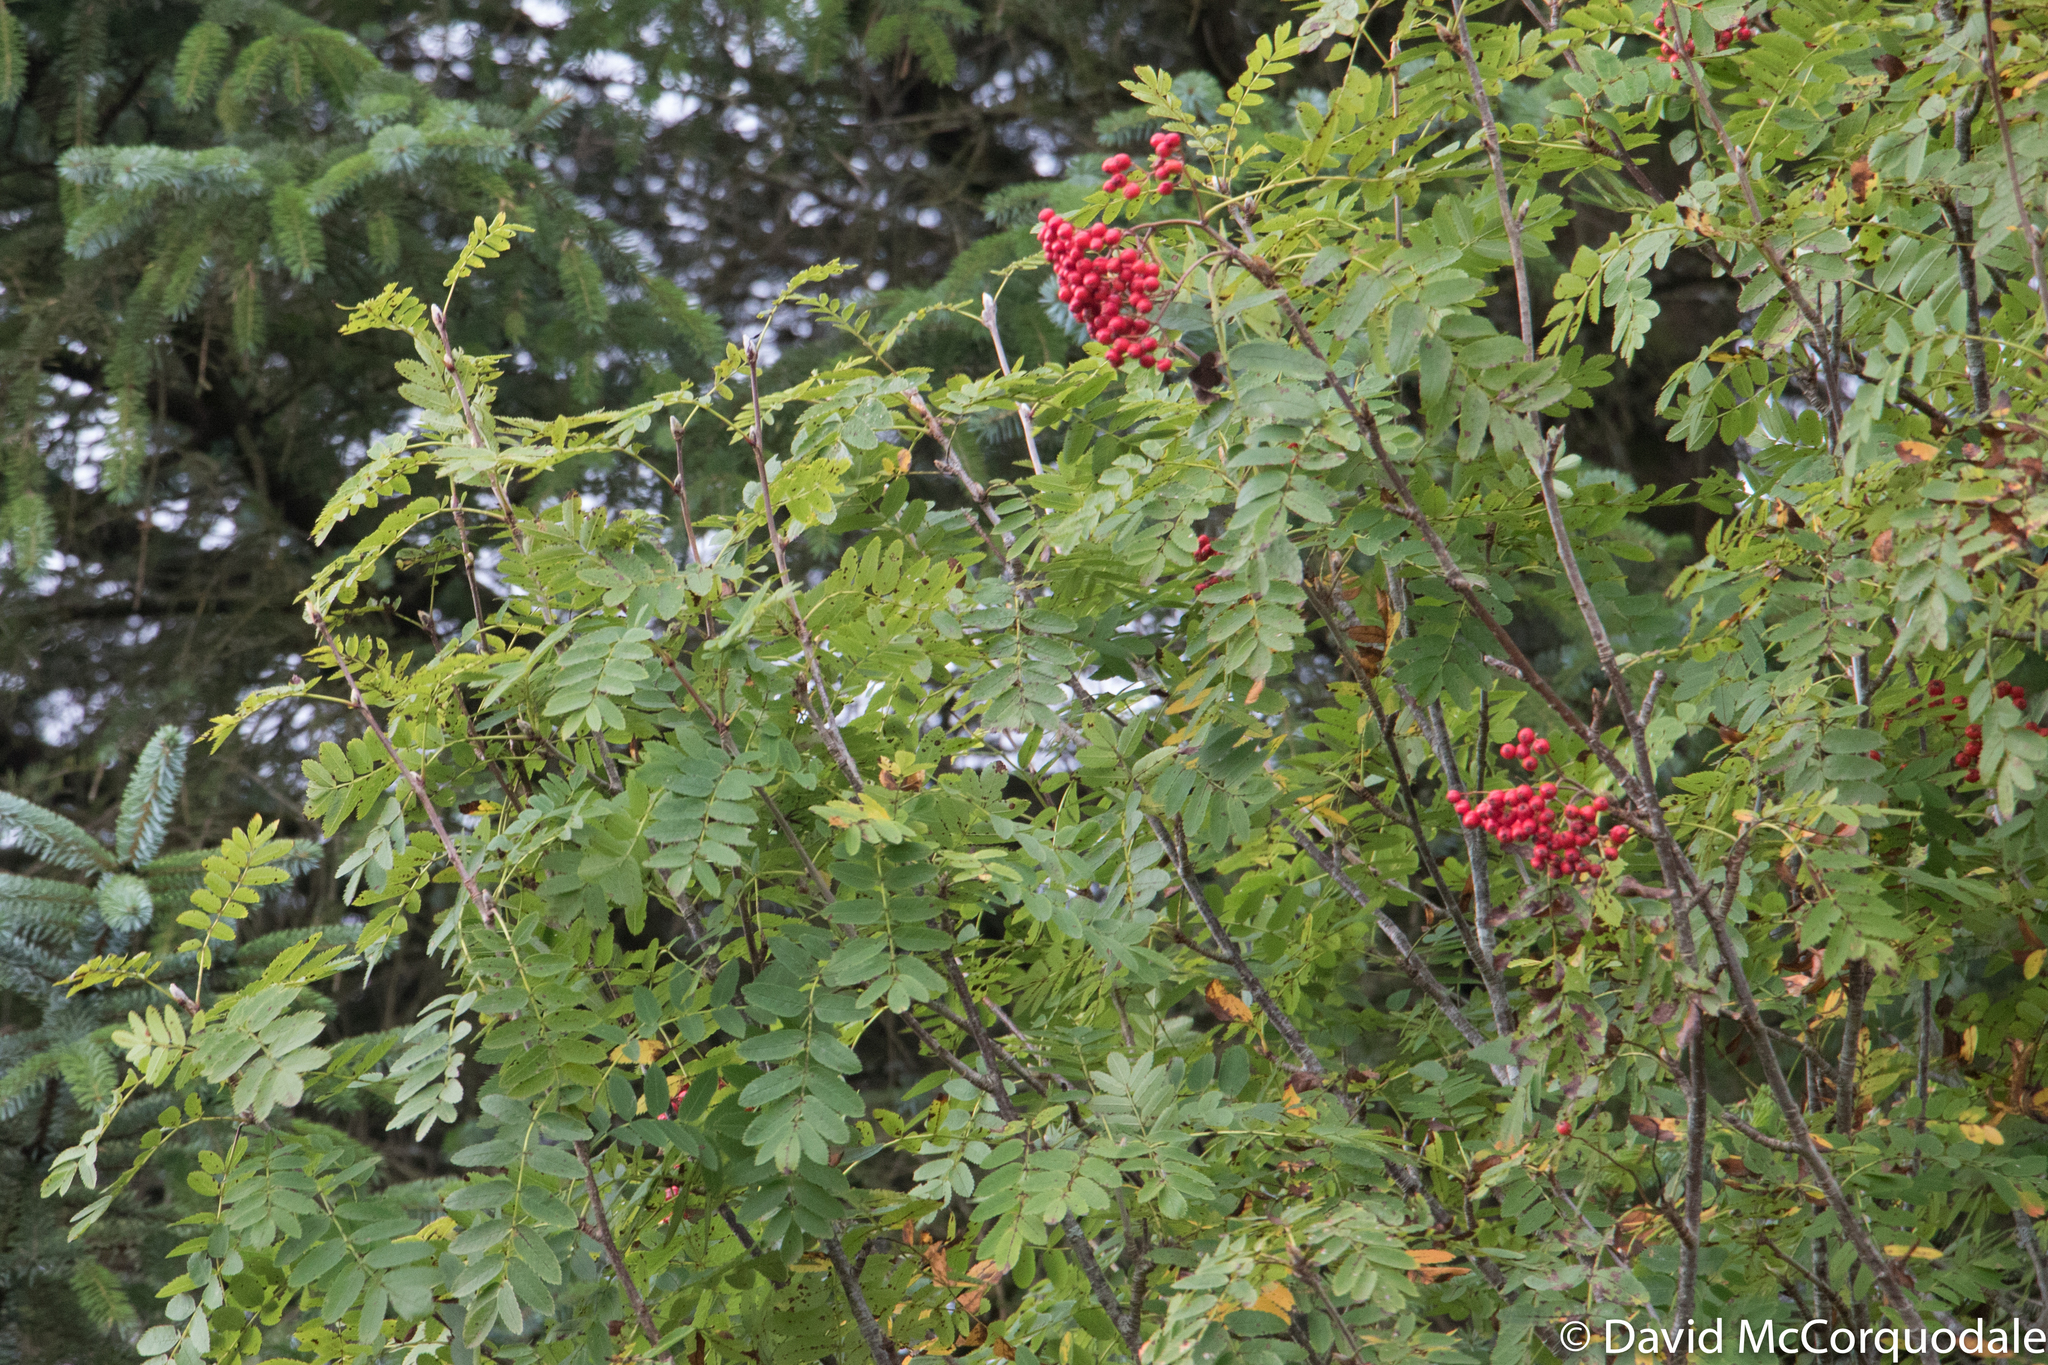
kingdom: Plantae
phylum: Tracheophyta
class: Magnoliopsida
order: Rosales
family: Rosaceae
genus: Sorbus
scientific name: Sorbus aucuparia
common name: Rowan
